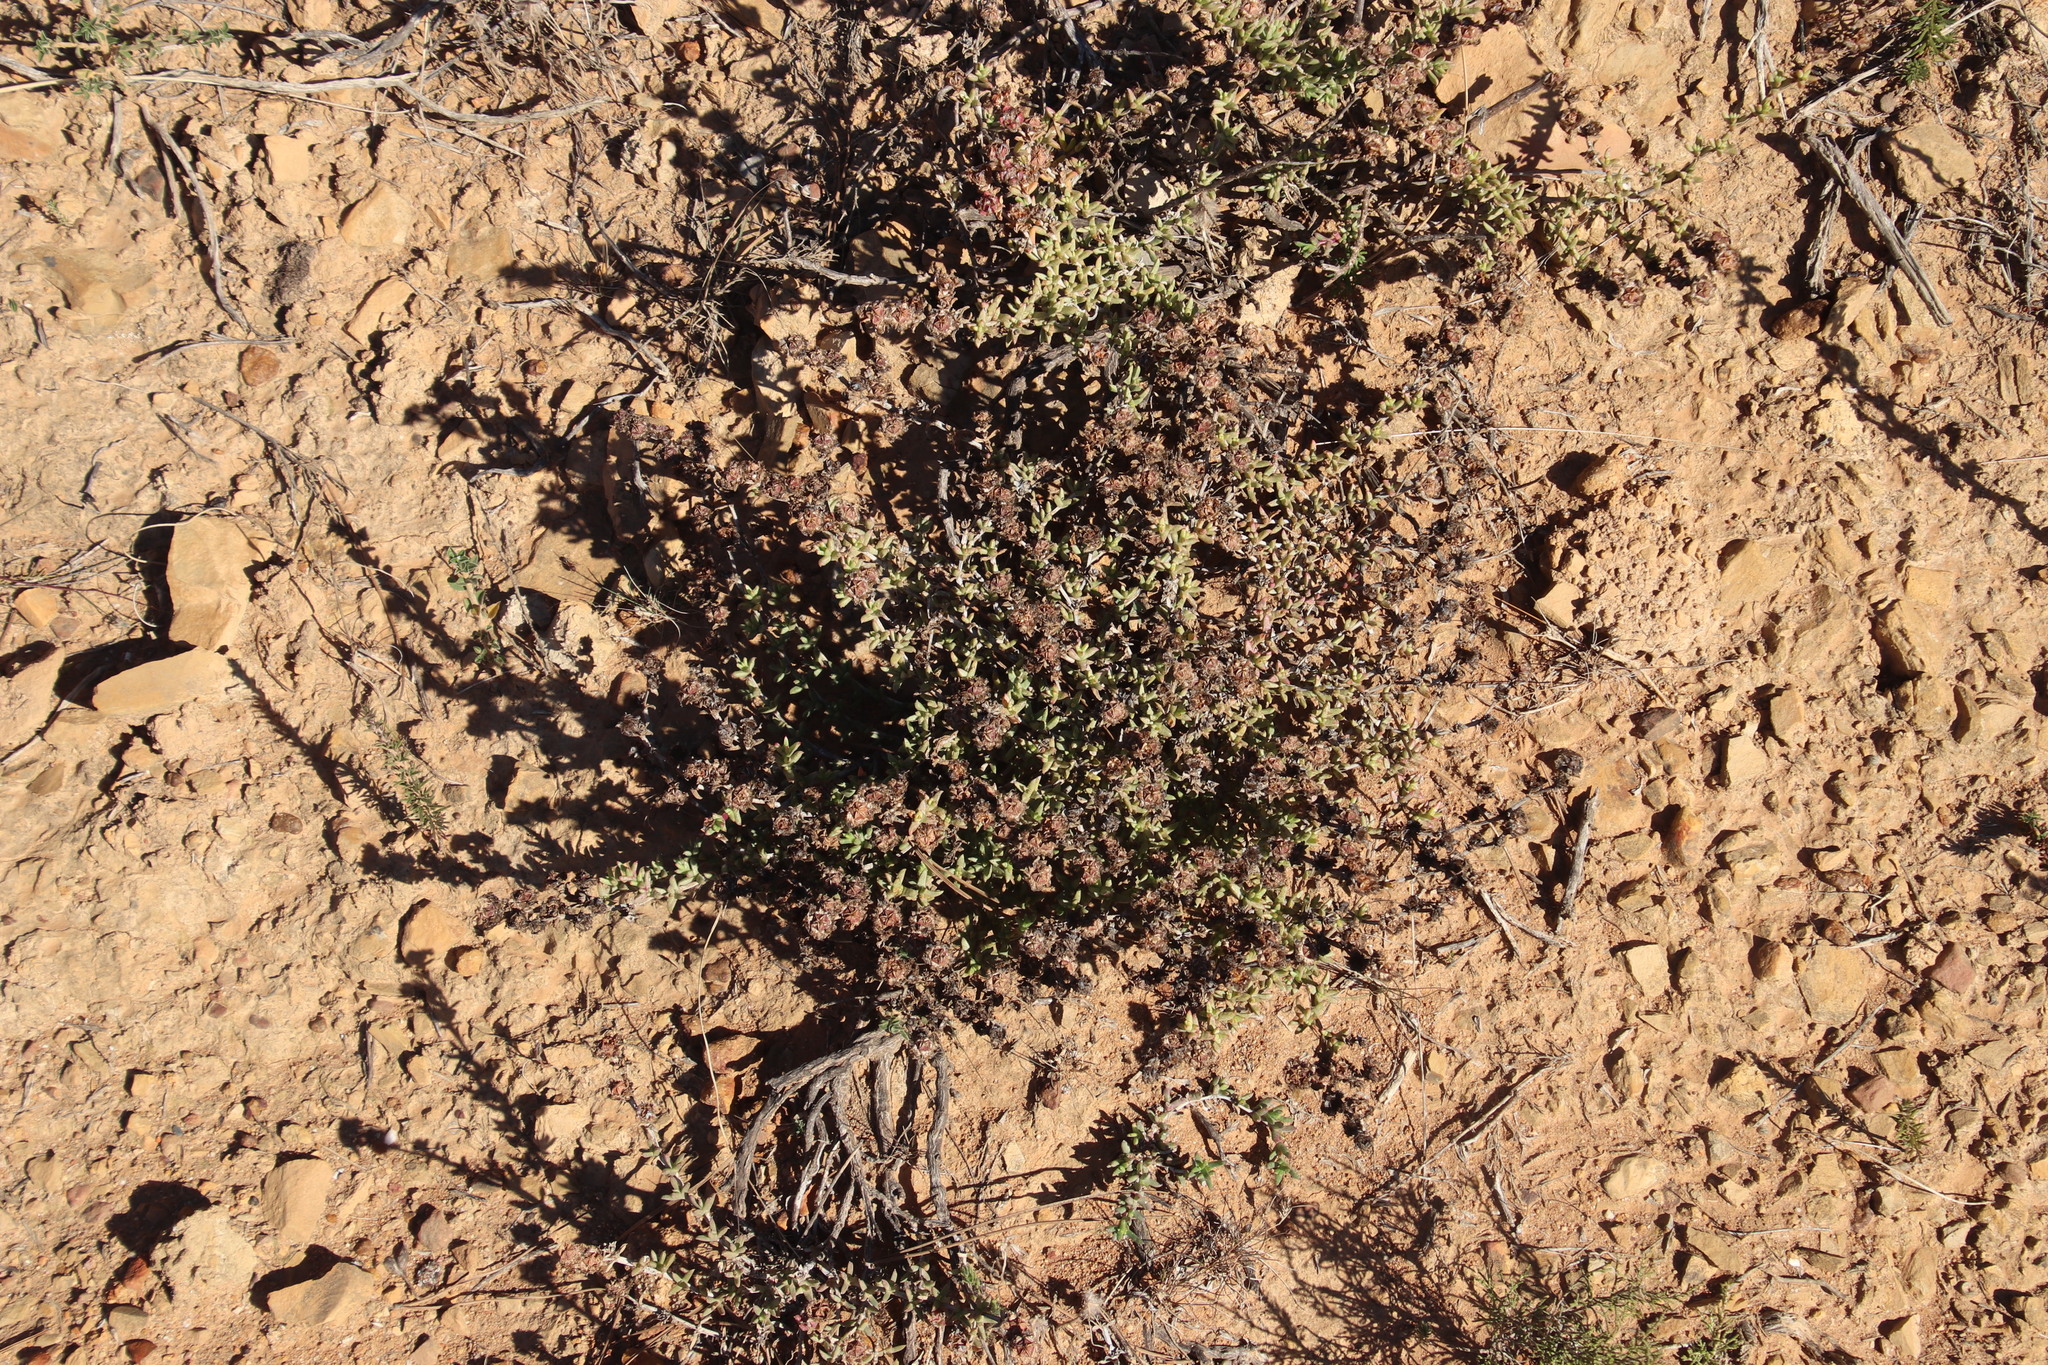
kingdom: Plantae
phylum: Tracheophyta
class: Magnoliopsida
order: Caryophyllales
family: Aizoaceae
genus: Erepsia
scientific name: Erepsia bracteata
